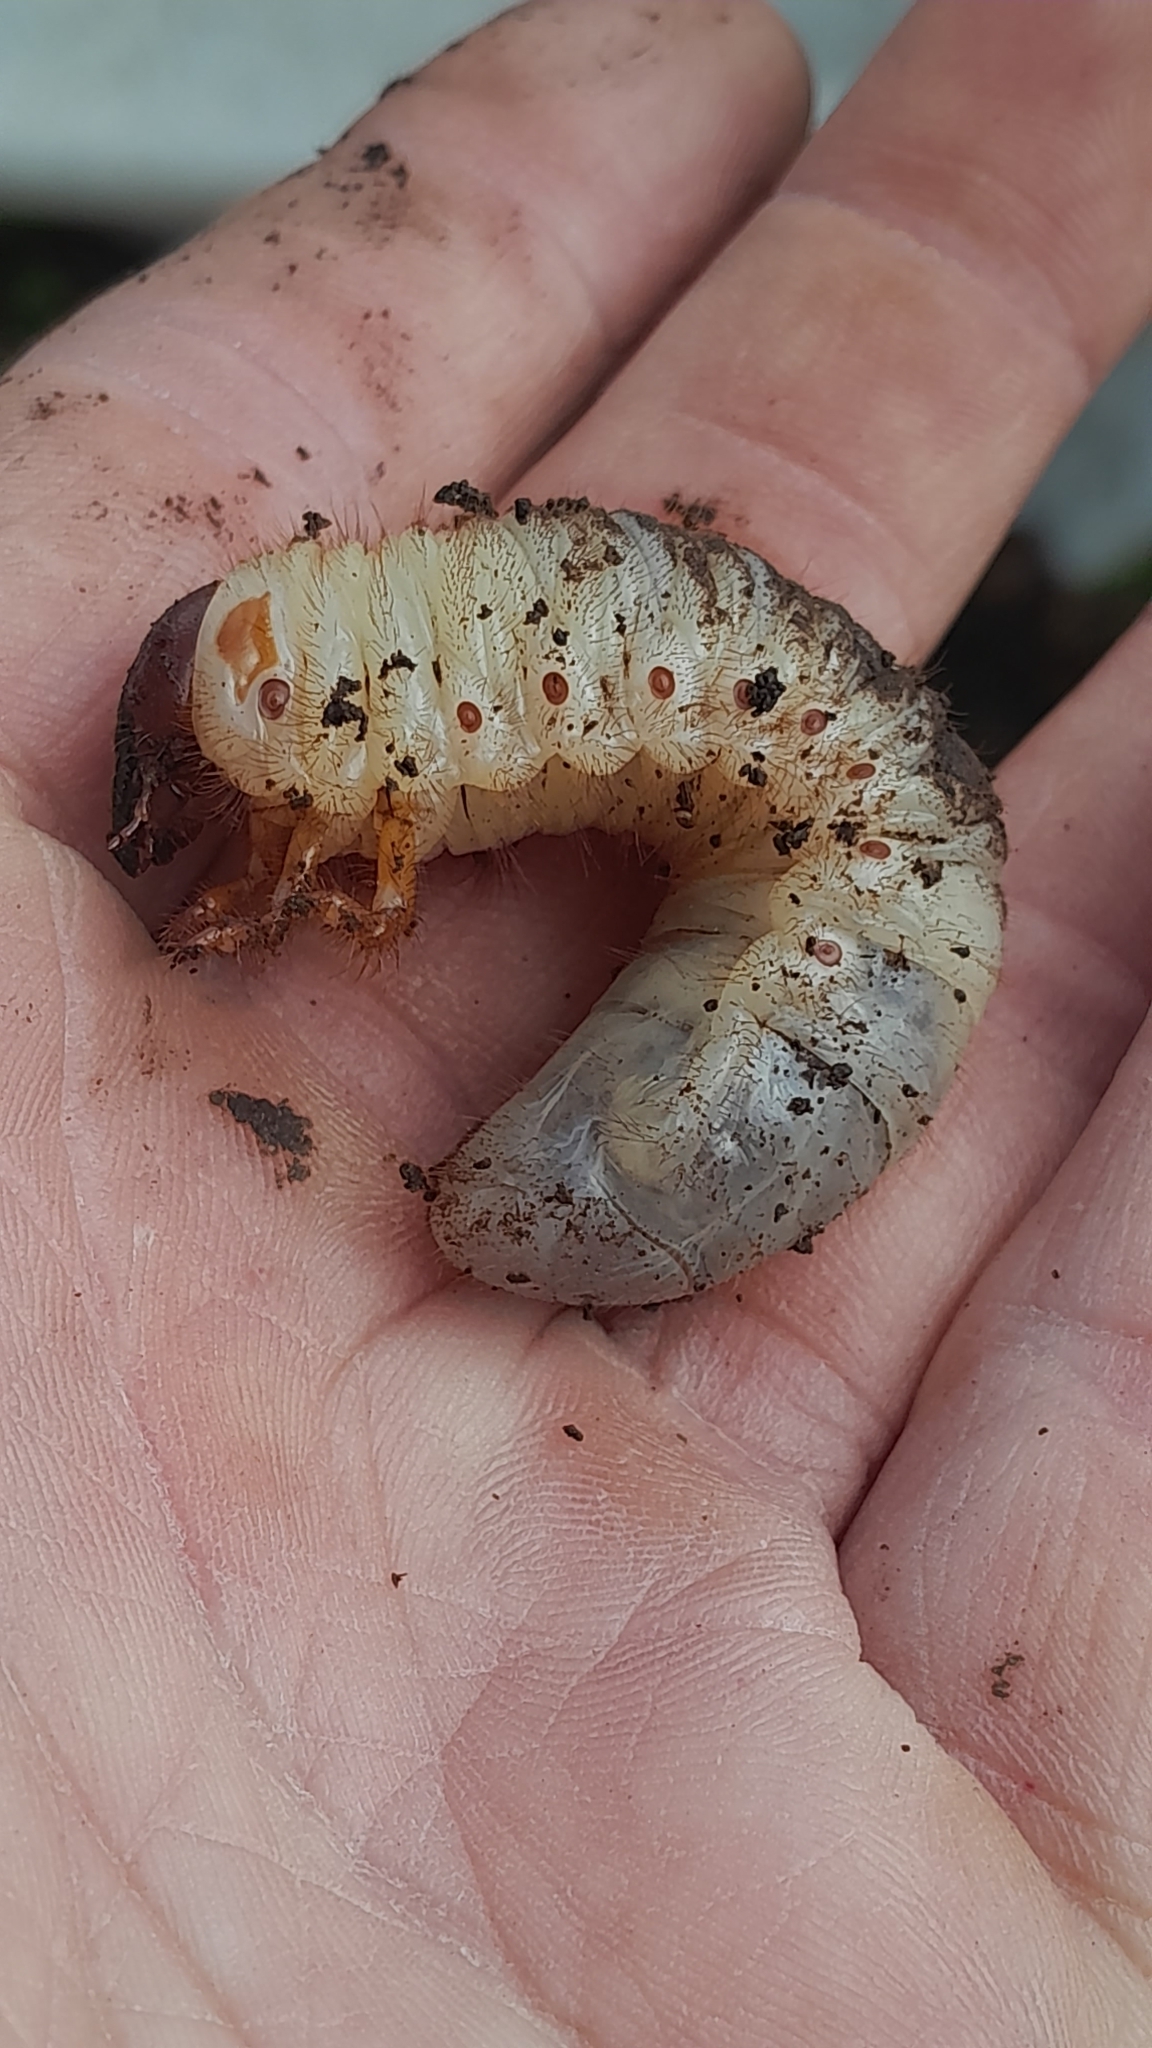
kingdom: Animalia
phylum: Arthropoda
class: Insecta
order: Coleoptera
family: Scarabaeidae
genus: Oryctes
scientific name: Oryctes nasicornis
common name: European rhinoceros beetle
